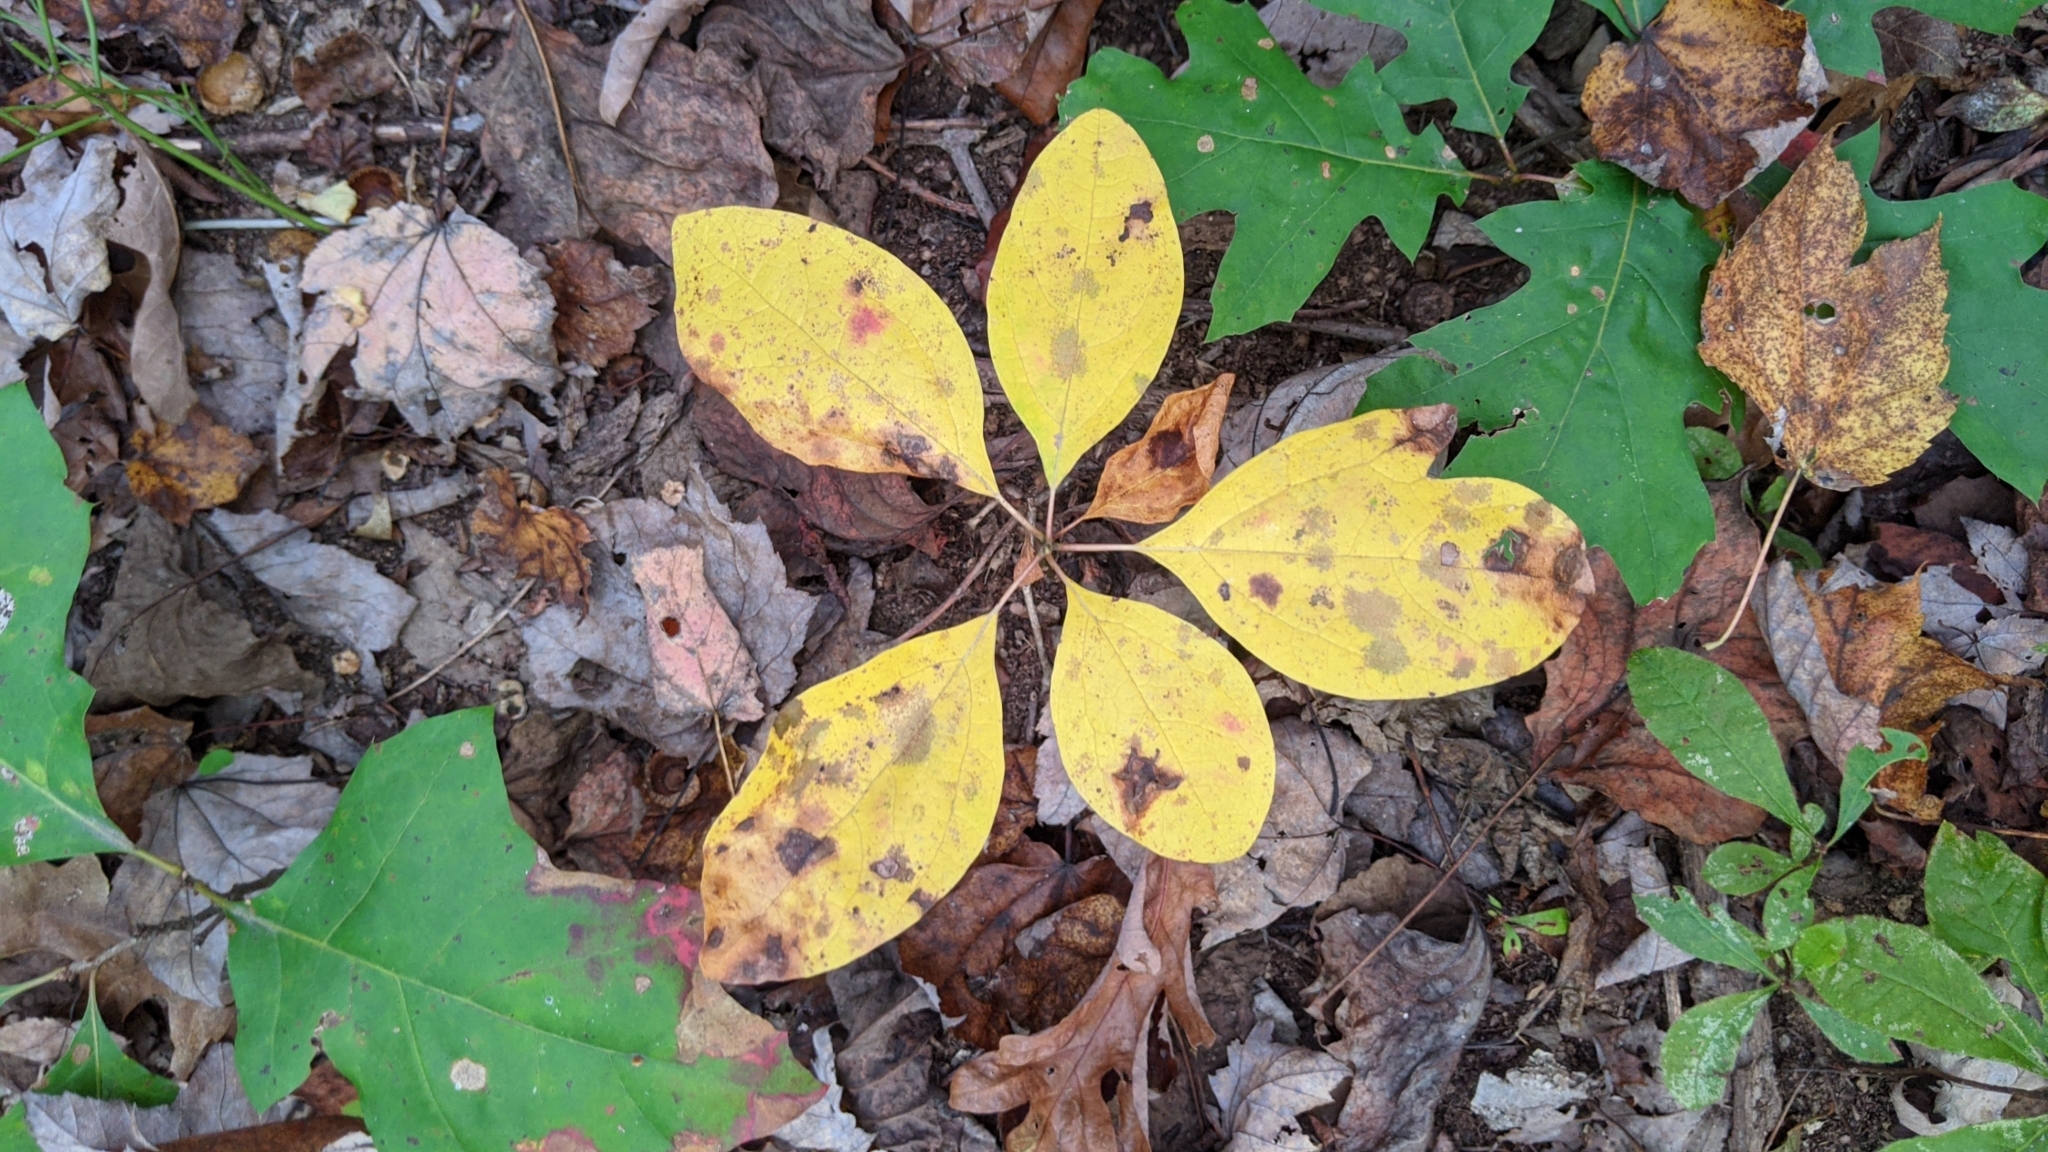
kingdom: Plantae
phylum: Tracheophyta
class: Magnoliopsida
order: Laurales
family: Lauraceae
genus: Sassafras
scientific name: Sassafras albidum
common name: Sassafras
